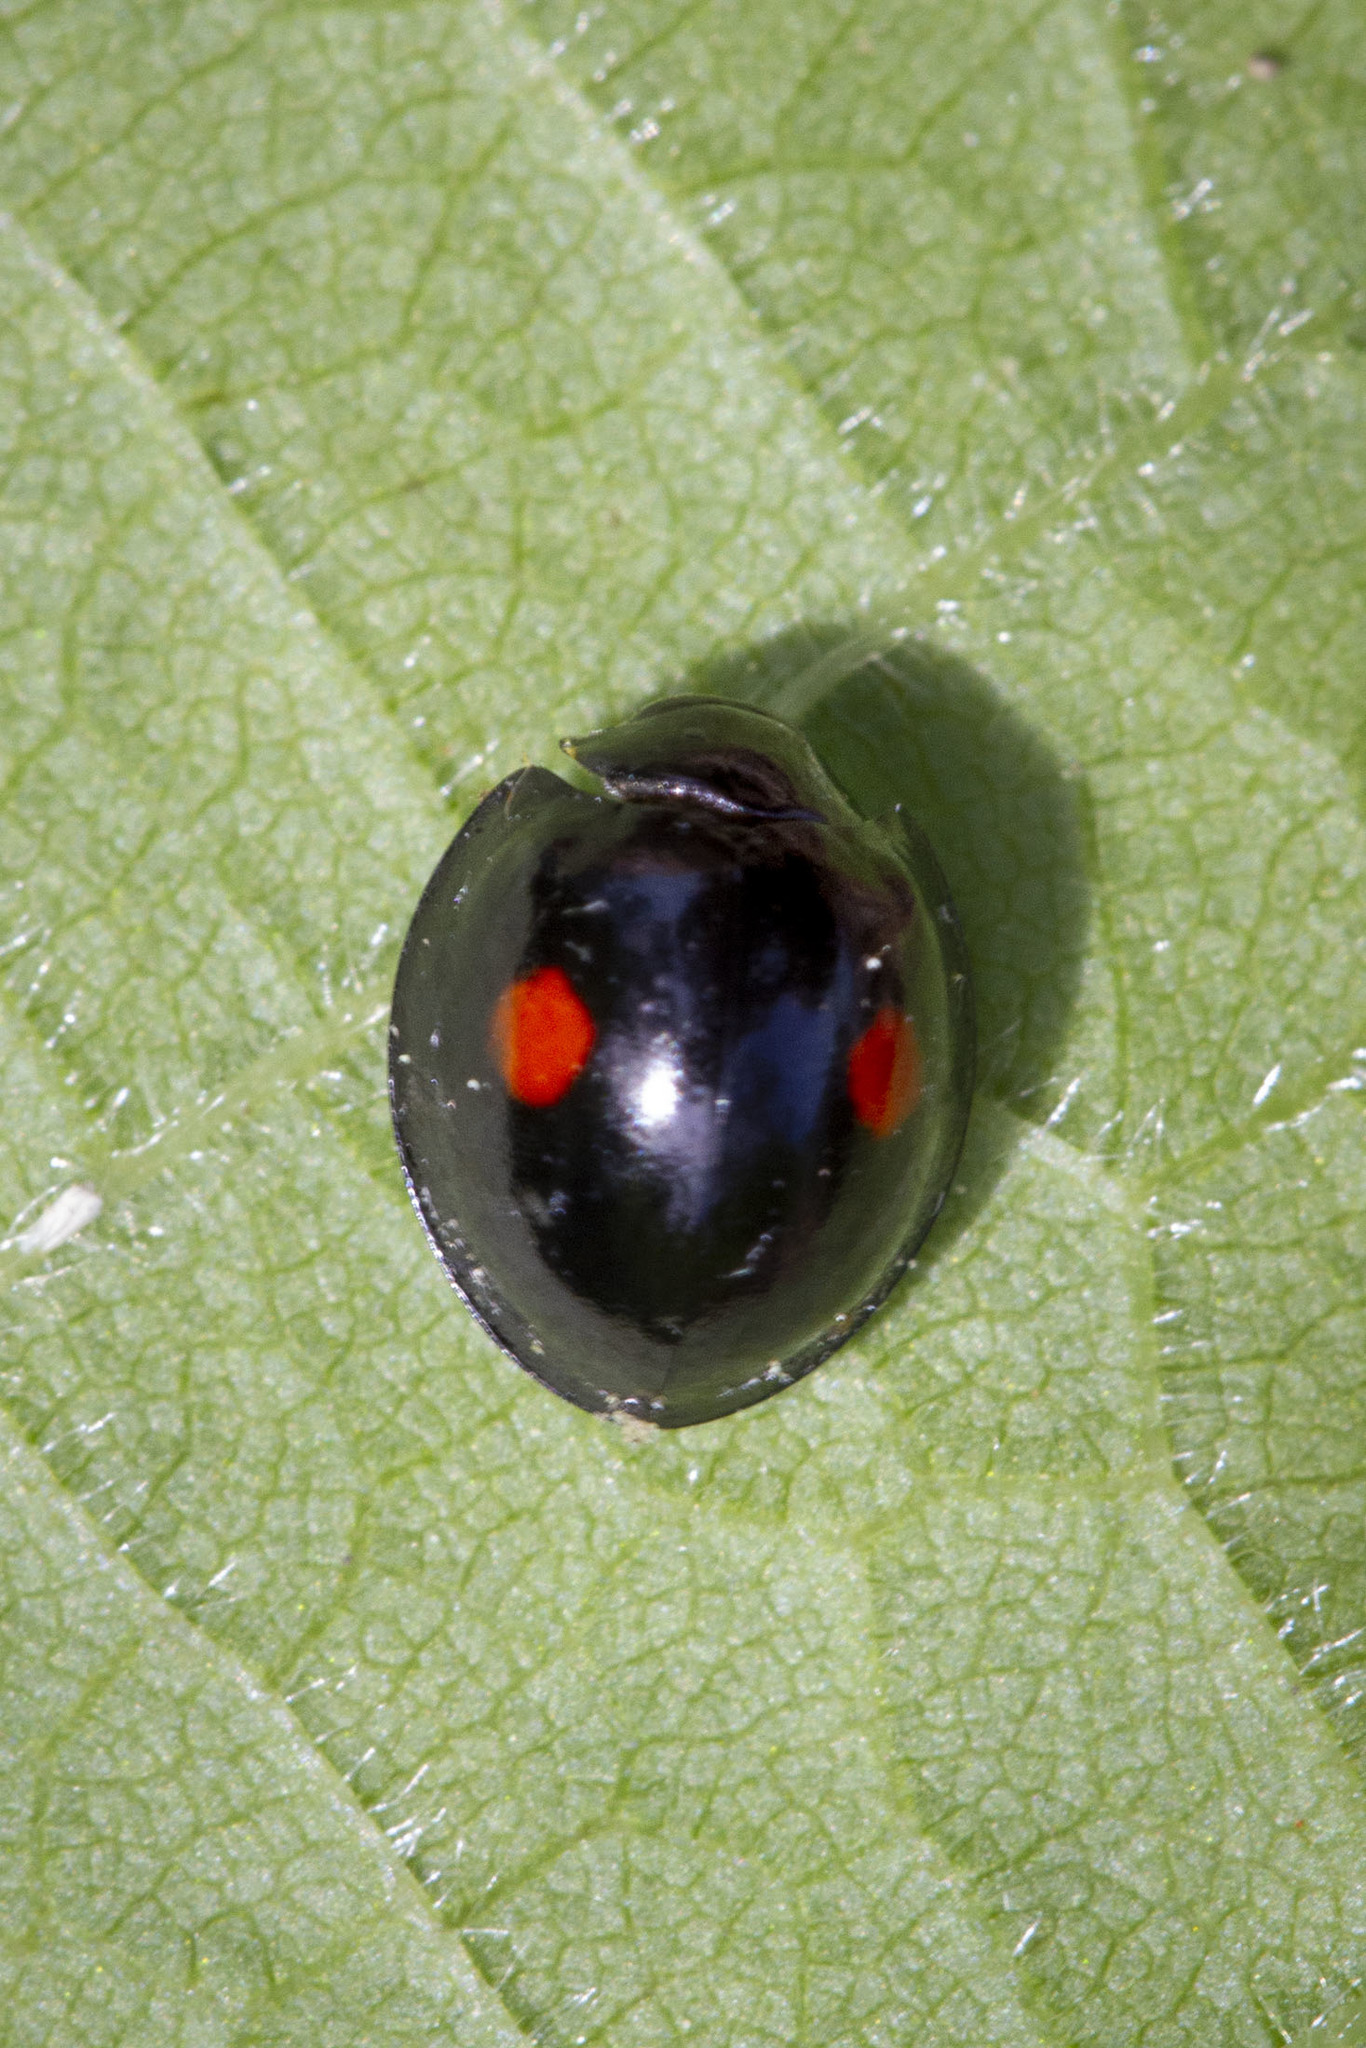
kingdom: Animalia
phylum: Arthropoda
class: Insecta
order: Coleoptera
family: Coccinellidae
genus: Chilocorus
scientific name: Chilocorus stigma
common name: Twicestabbed lady beetle
